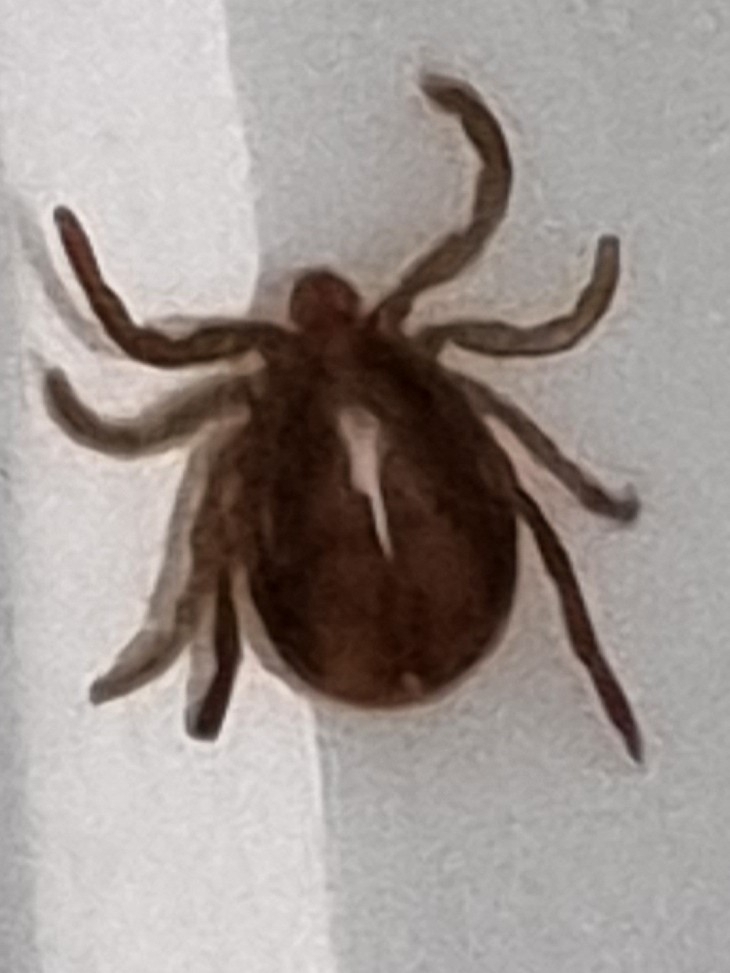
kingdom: Animalia
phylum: Arthropoda
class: Arachnida
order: Ixodida
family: Ixodidae
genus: Ixodes
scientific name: Ixodes holocyclus
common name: Australian paralysis tick
